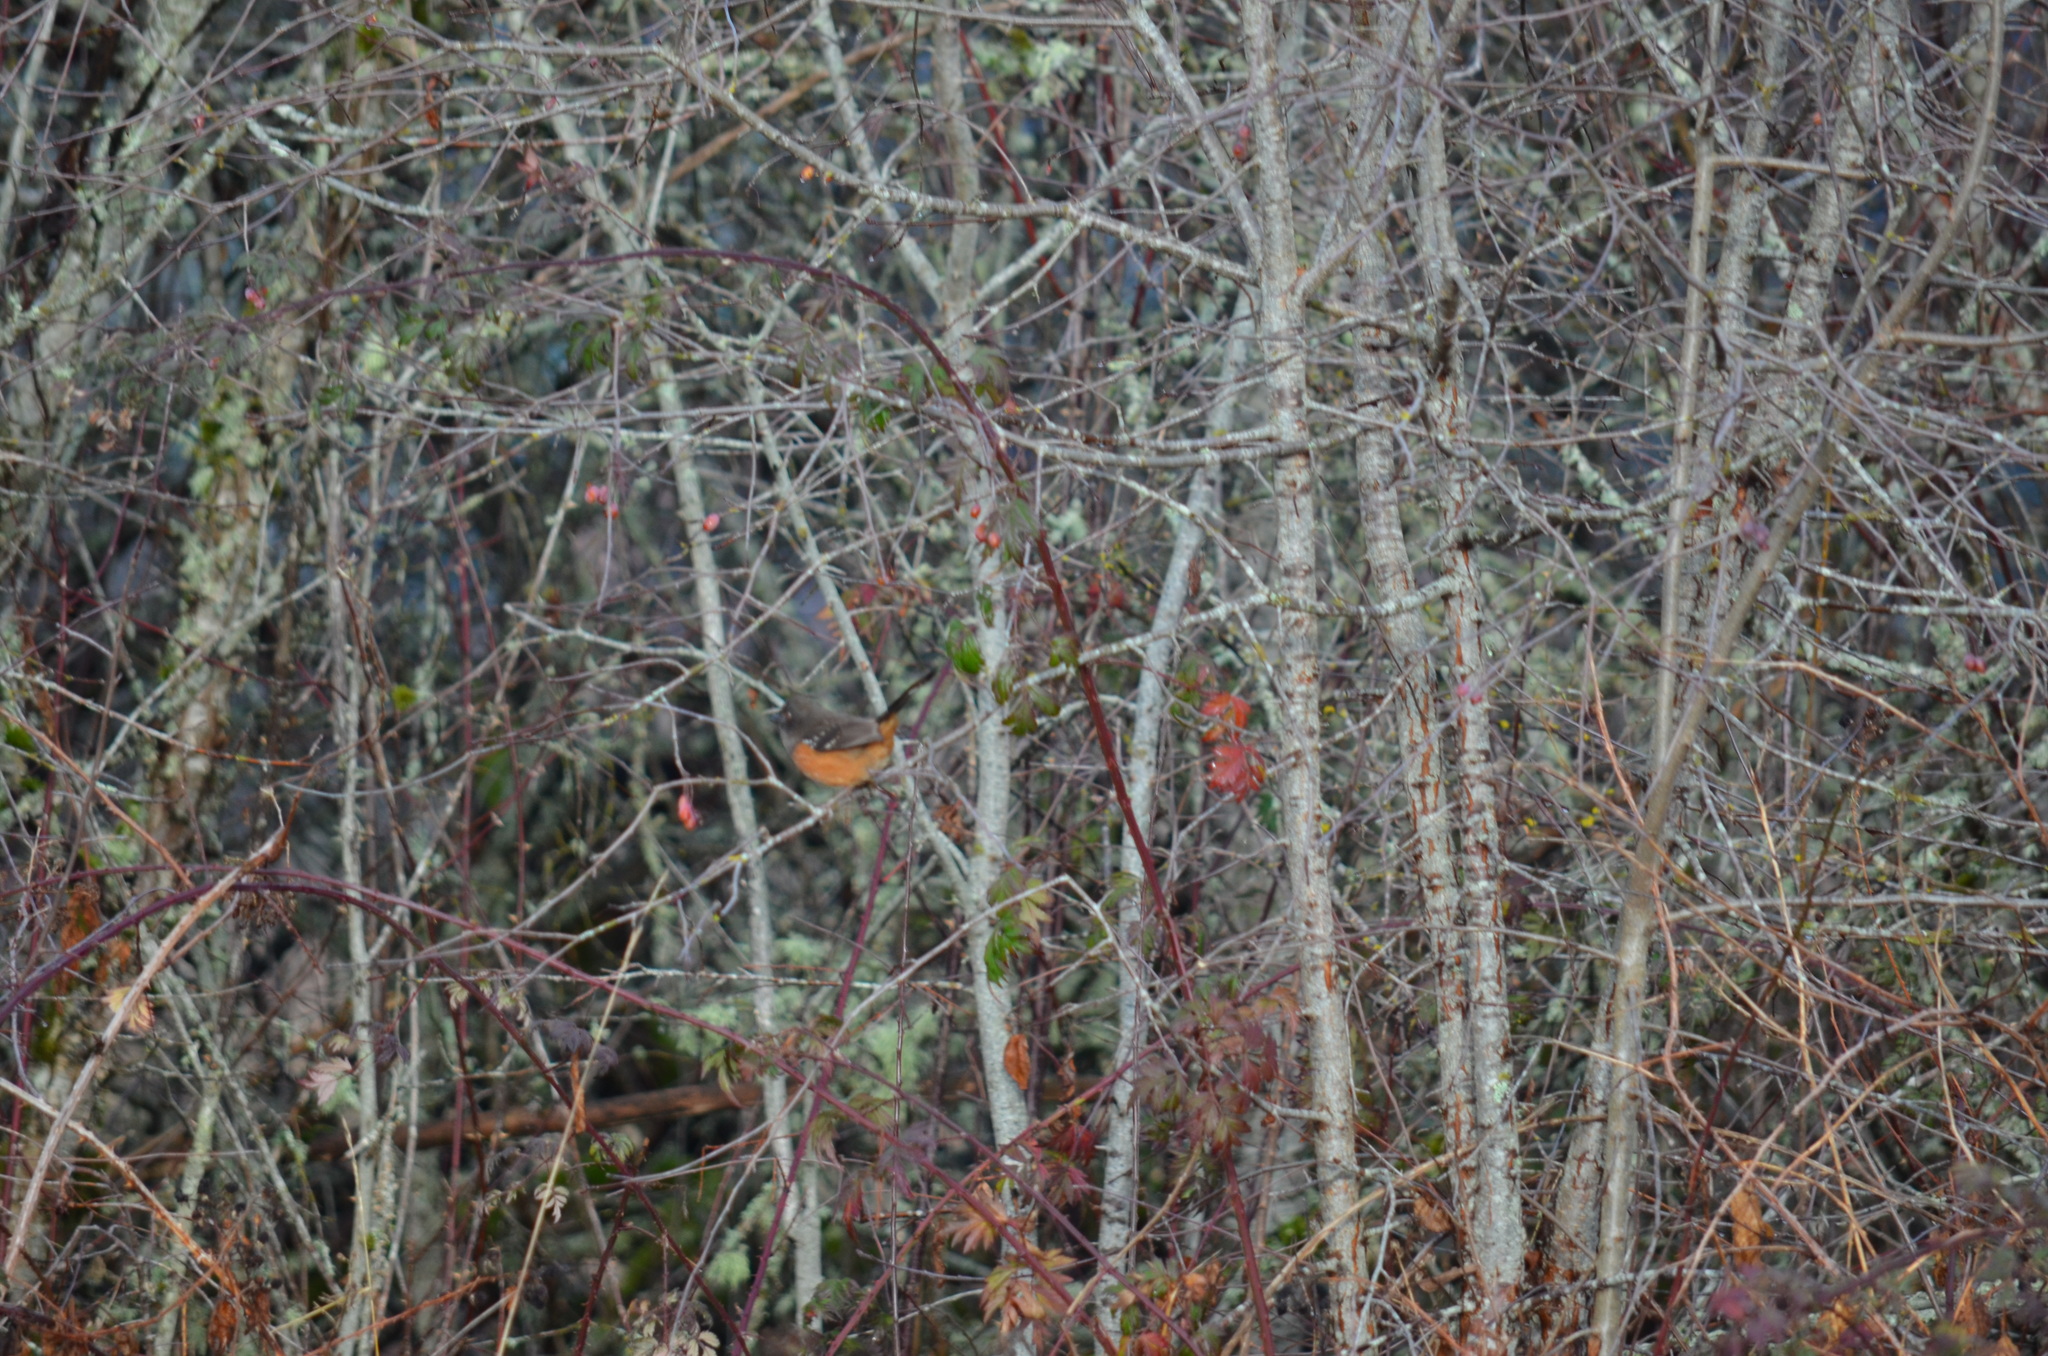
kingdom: Animalia
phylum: Chordata
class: Aves
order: Passeriformes
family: Passerellidae
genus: Pipilo
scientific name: Pipilo maculatus
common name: Spotted towhee
